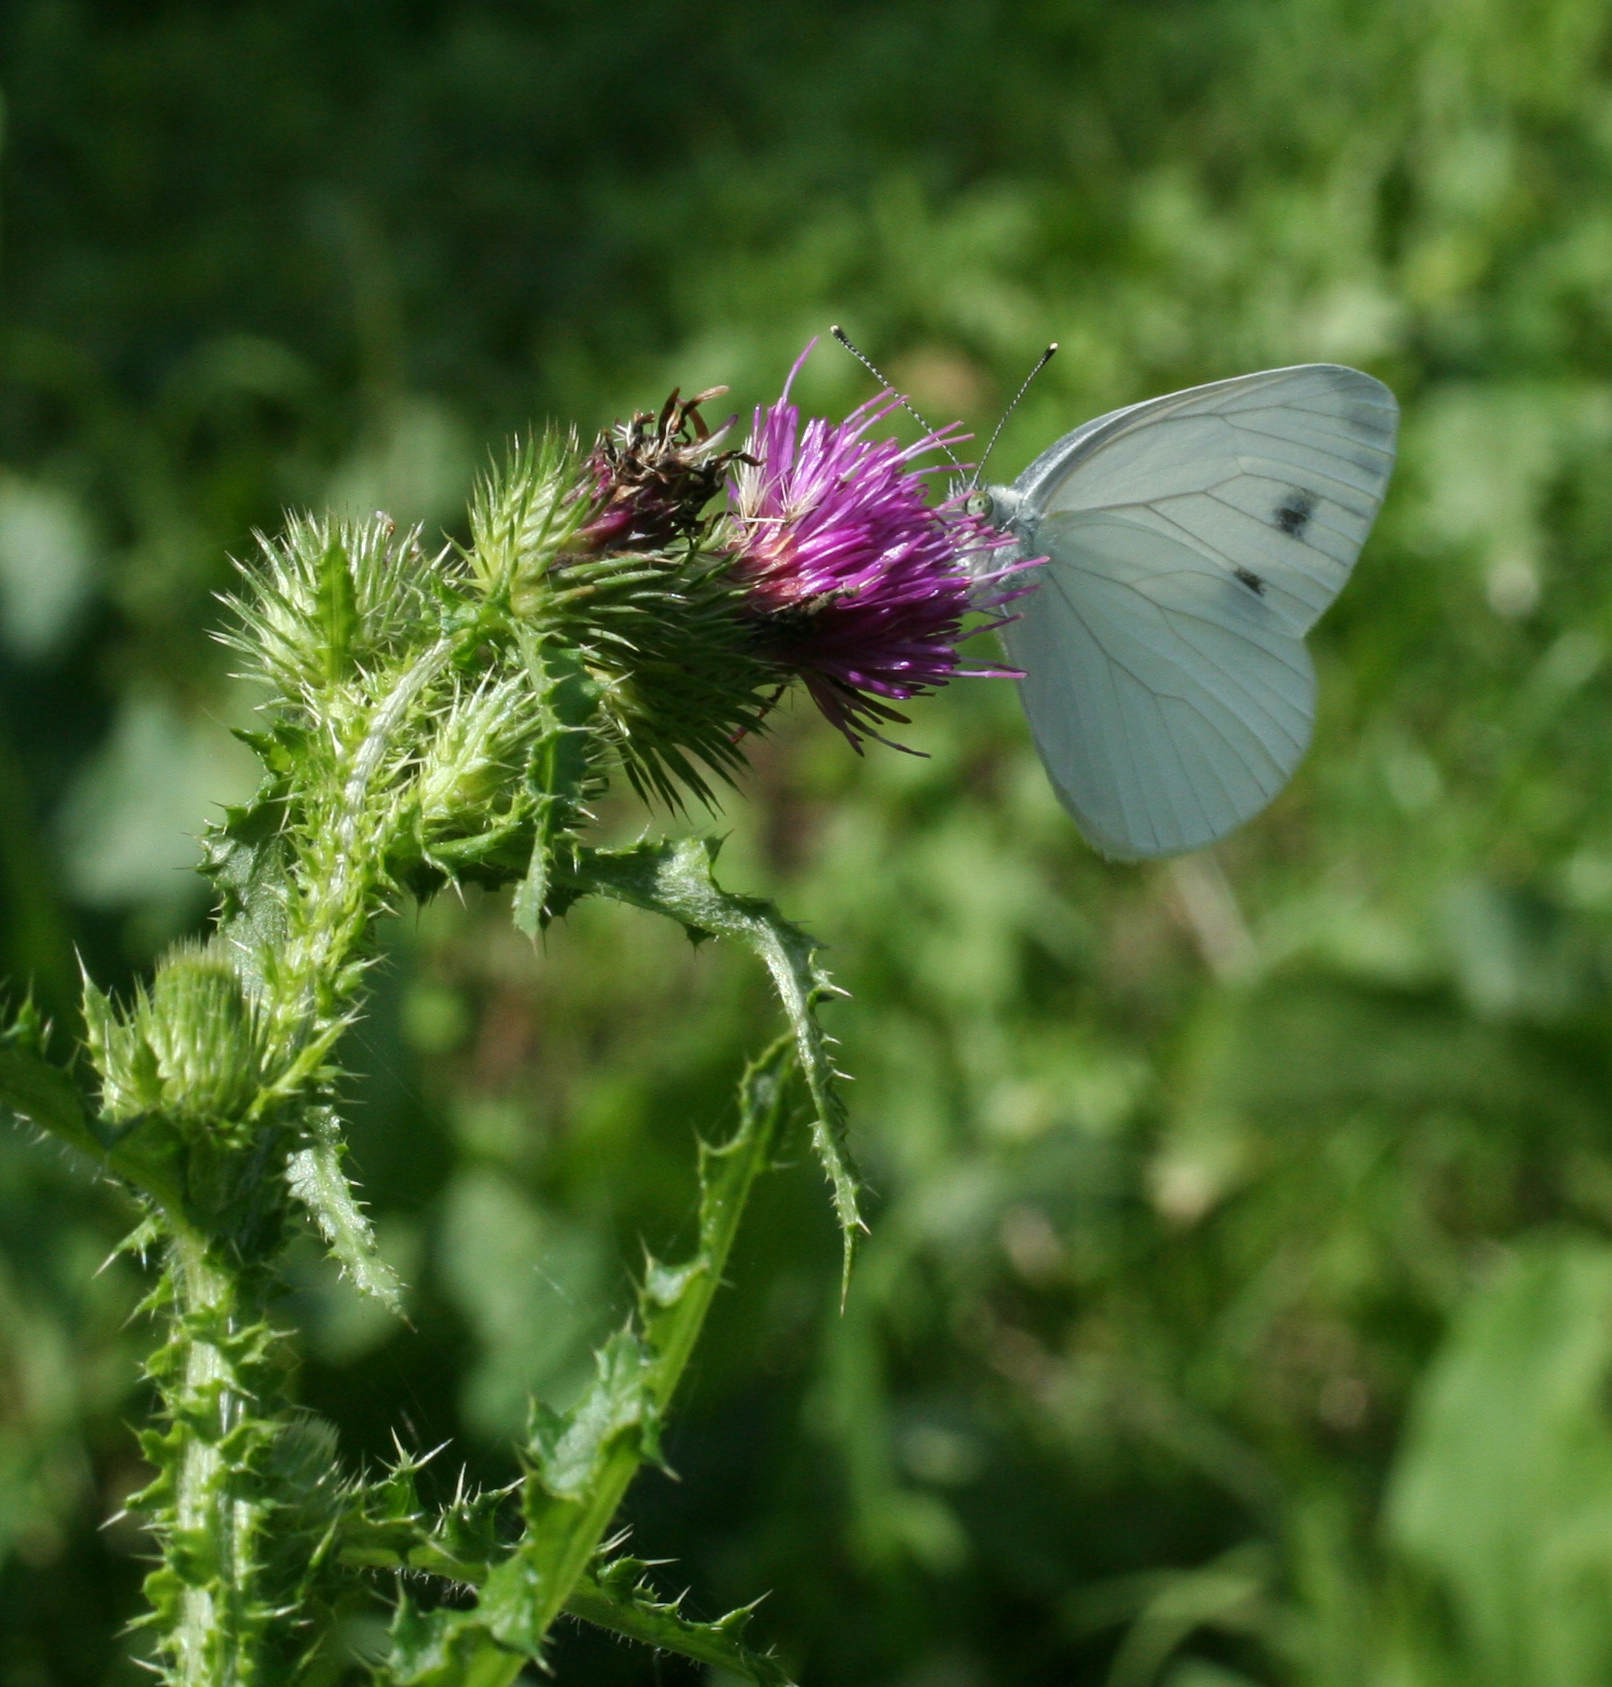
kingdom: Animalia
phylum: Arthropoda
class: Insecta
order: Lepidoptera
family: Pieridae
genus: Pieris
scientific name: Pieris dulcinea
